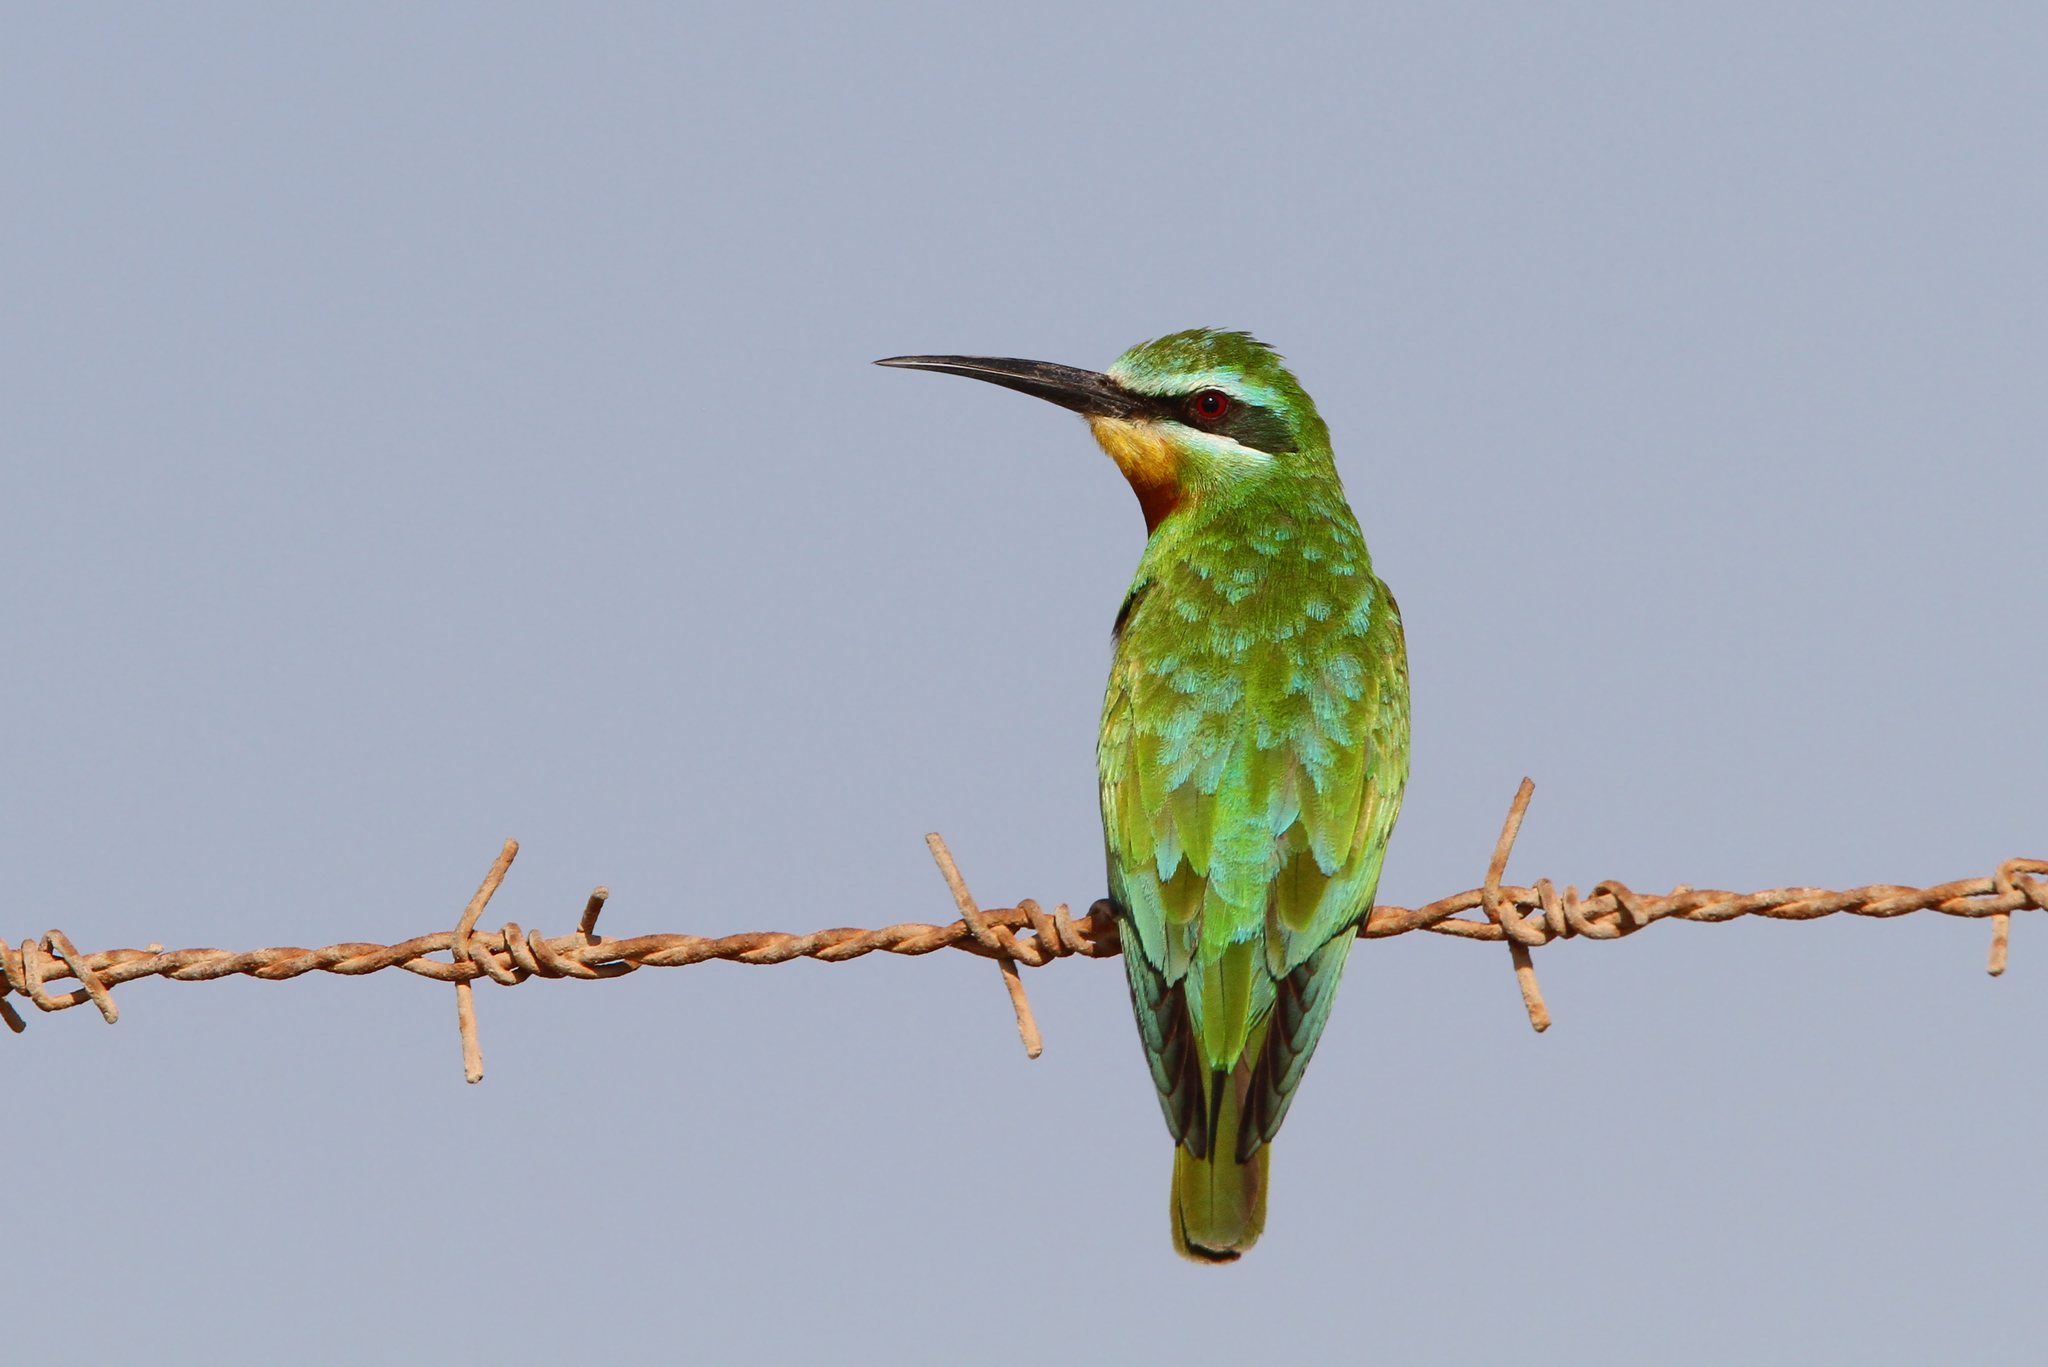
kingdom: Animalia
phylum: Chordata
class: Aves
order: Coraciiformes
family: Meropidae
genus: Merops
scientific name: Merops persicus
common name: Blue-cheeked bee-eater
